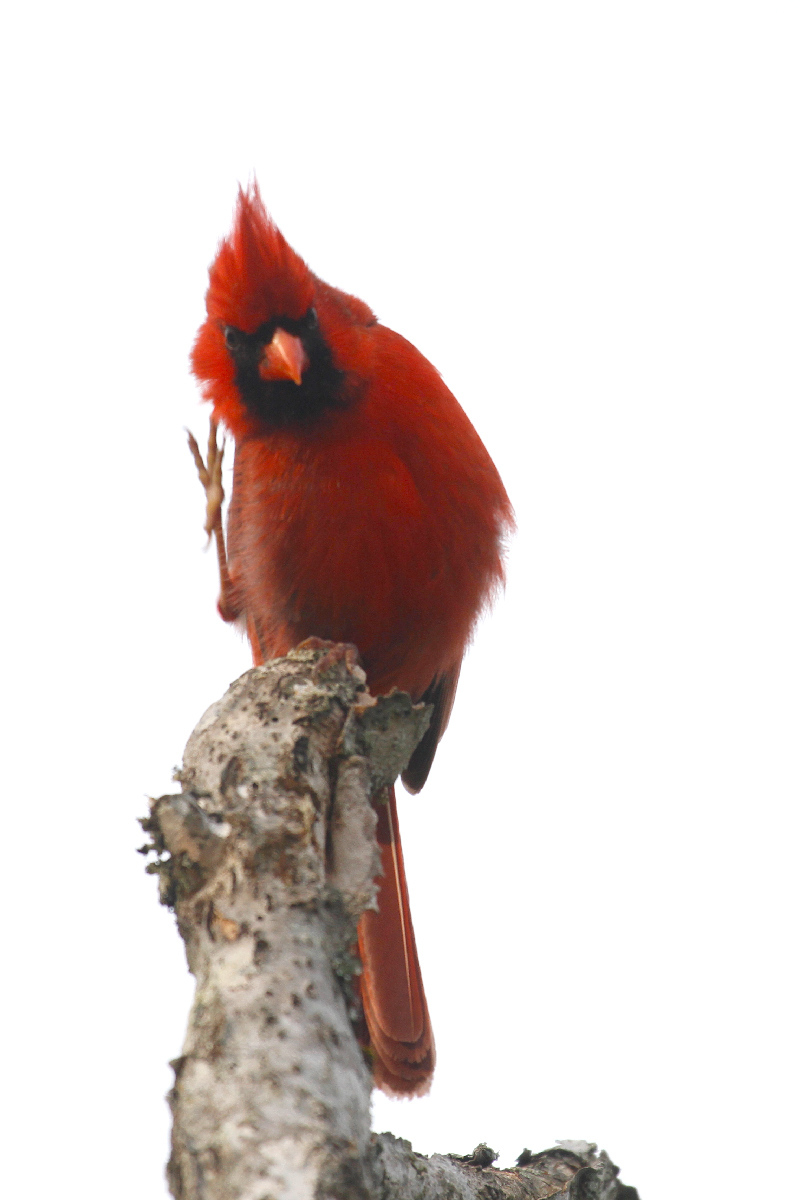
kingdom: Animalia
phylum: Chordata
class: Aves
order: Passeriformes
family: Cardinalidae
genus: Cardinalis
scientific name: Cardinalis cardinalis
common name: Northern cardinal
